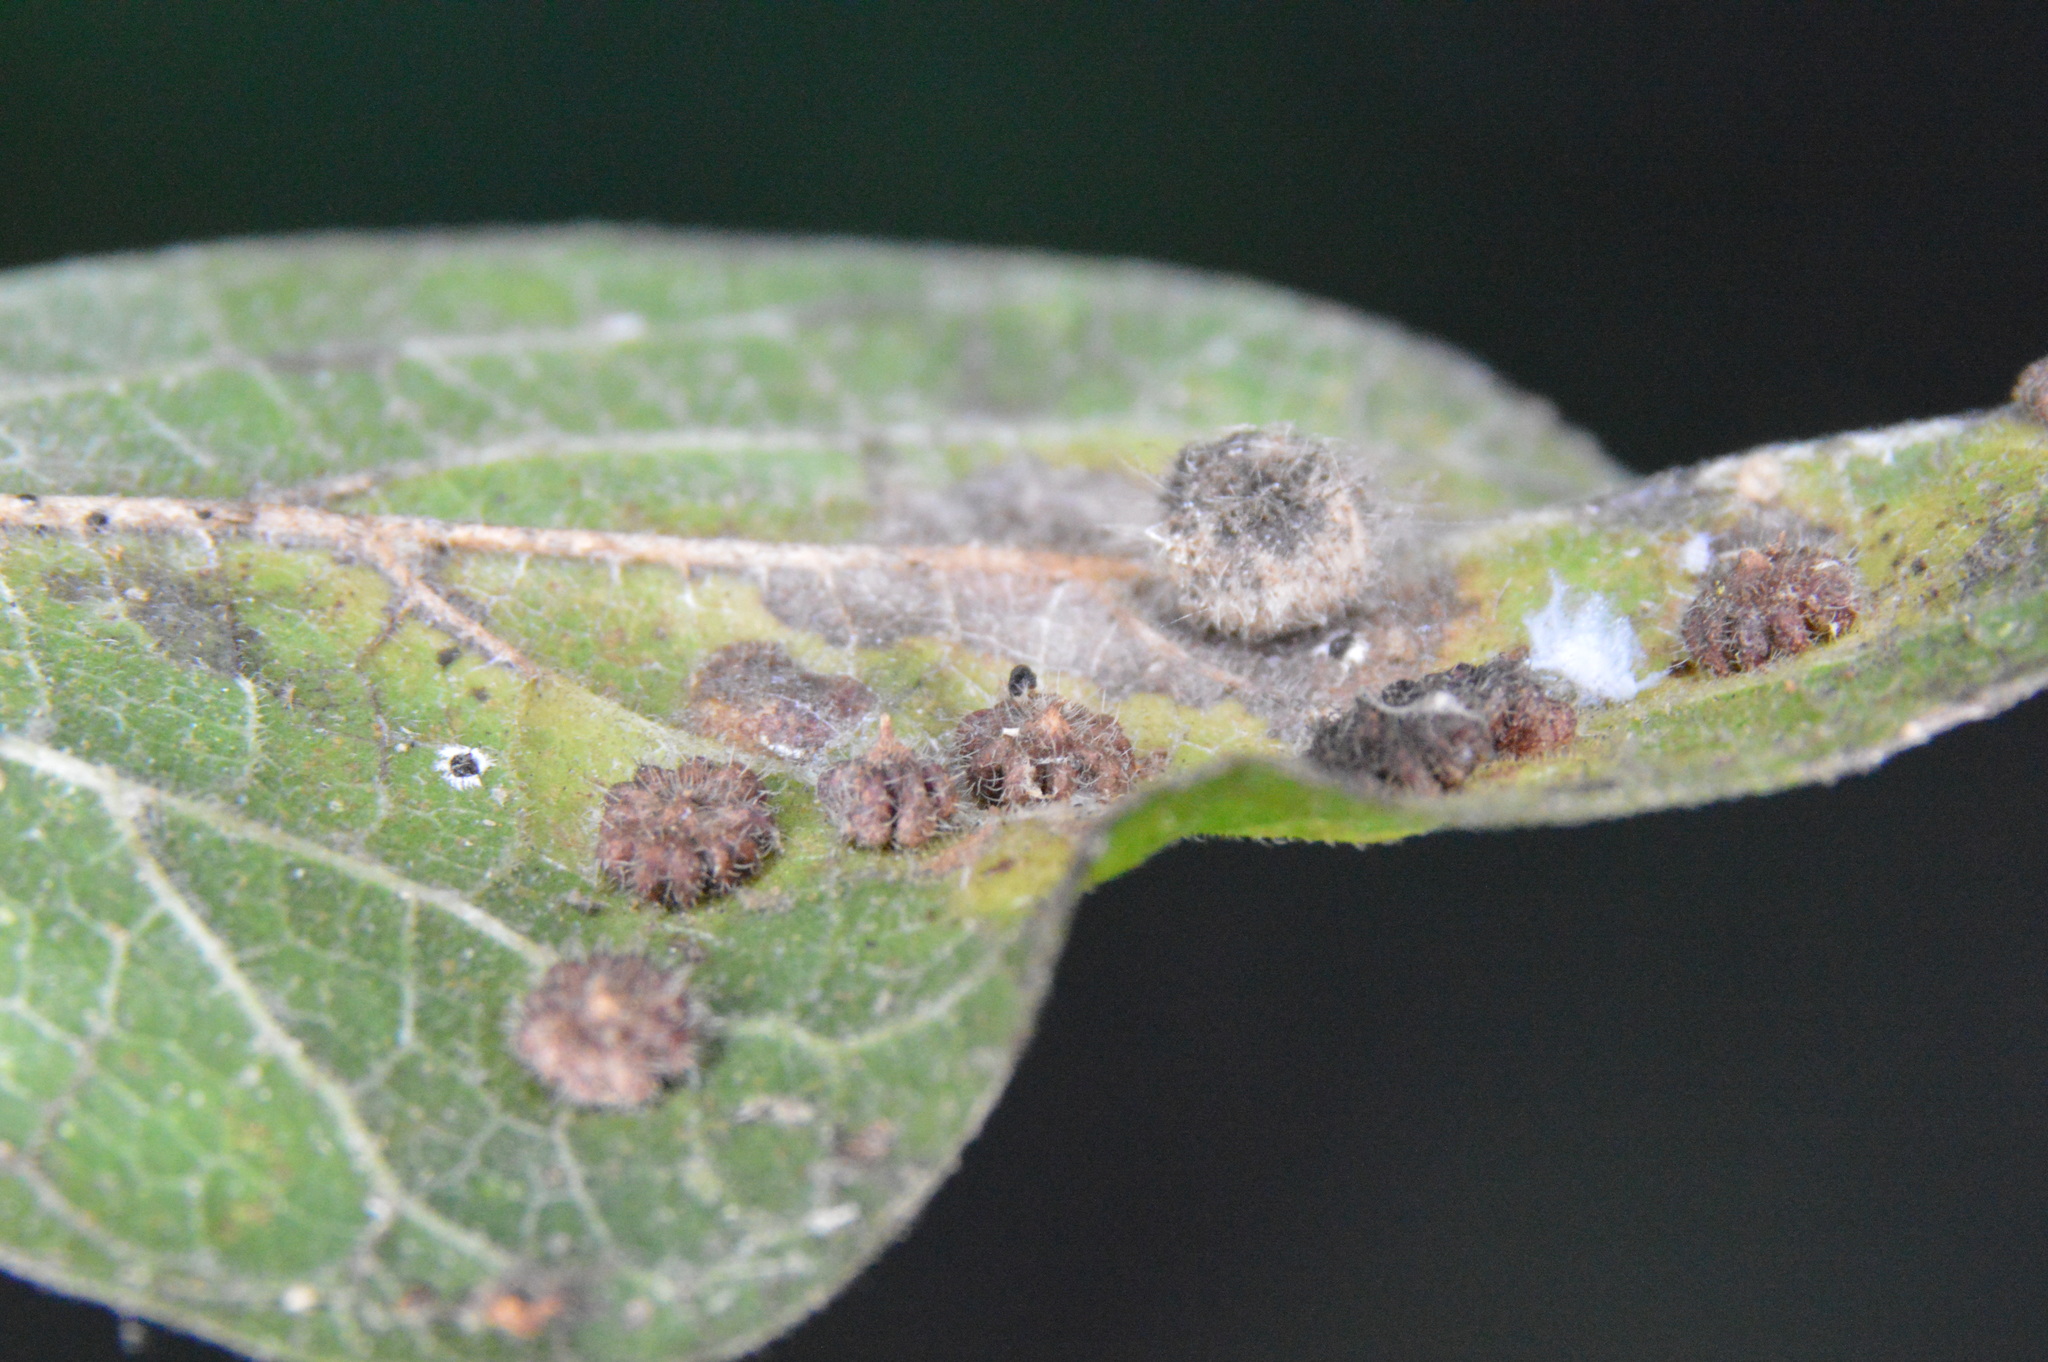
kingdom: Animalia
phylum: Arthropoda
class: Insecta
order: Diptera
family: Cecidomyiidae
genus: Celticecis
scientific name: Celticecis capsularis
